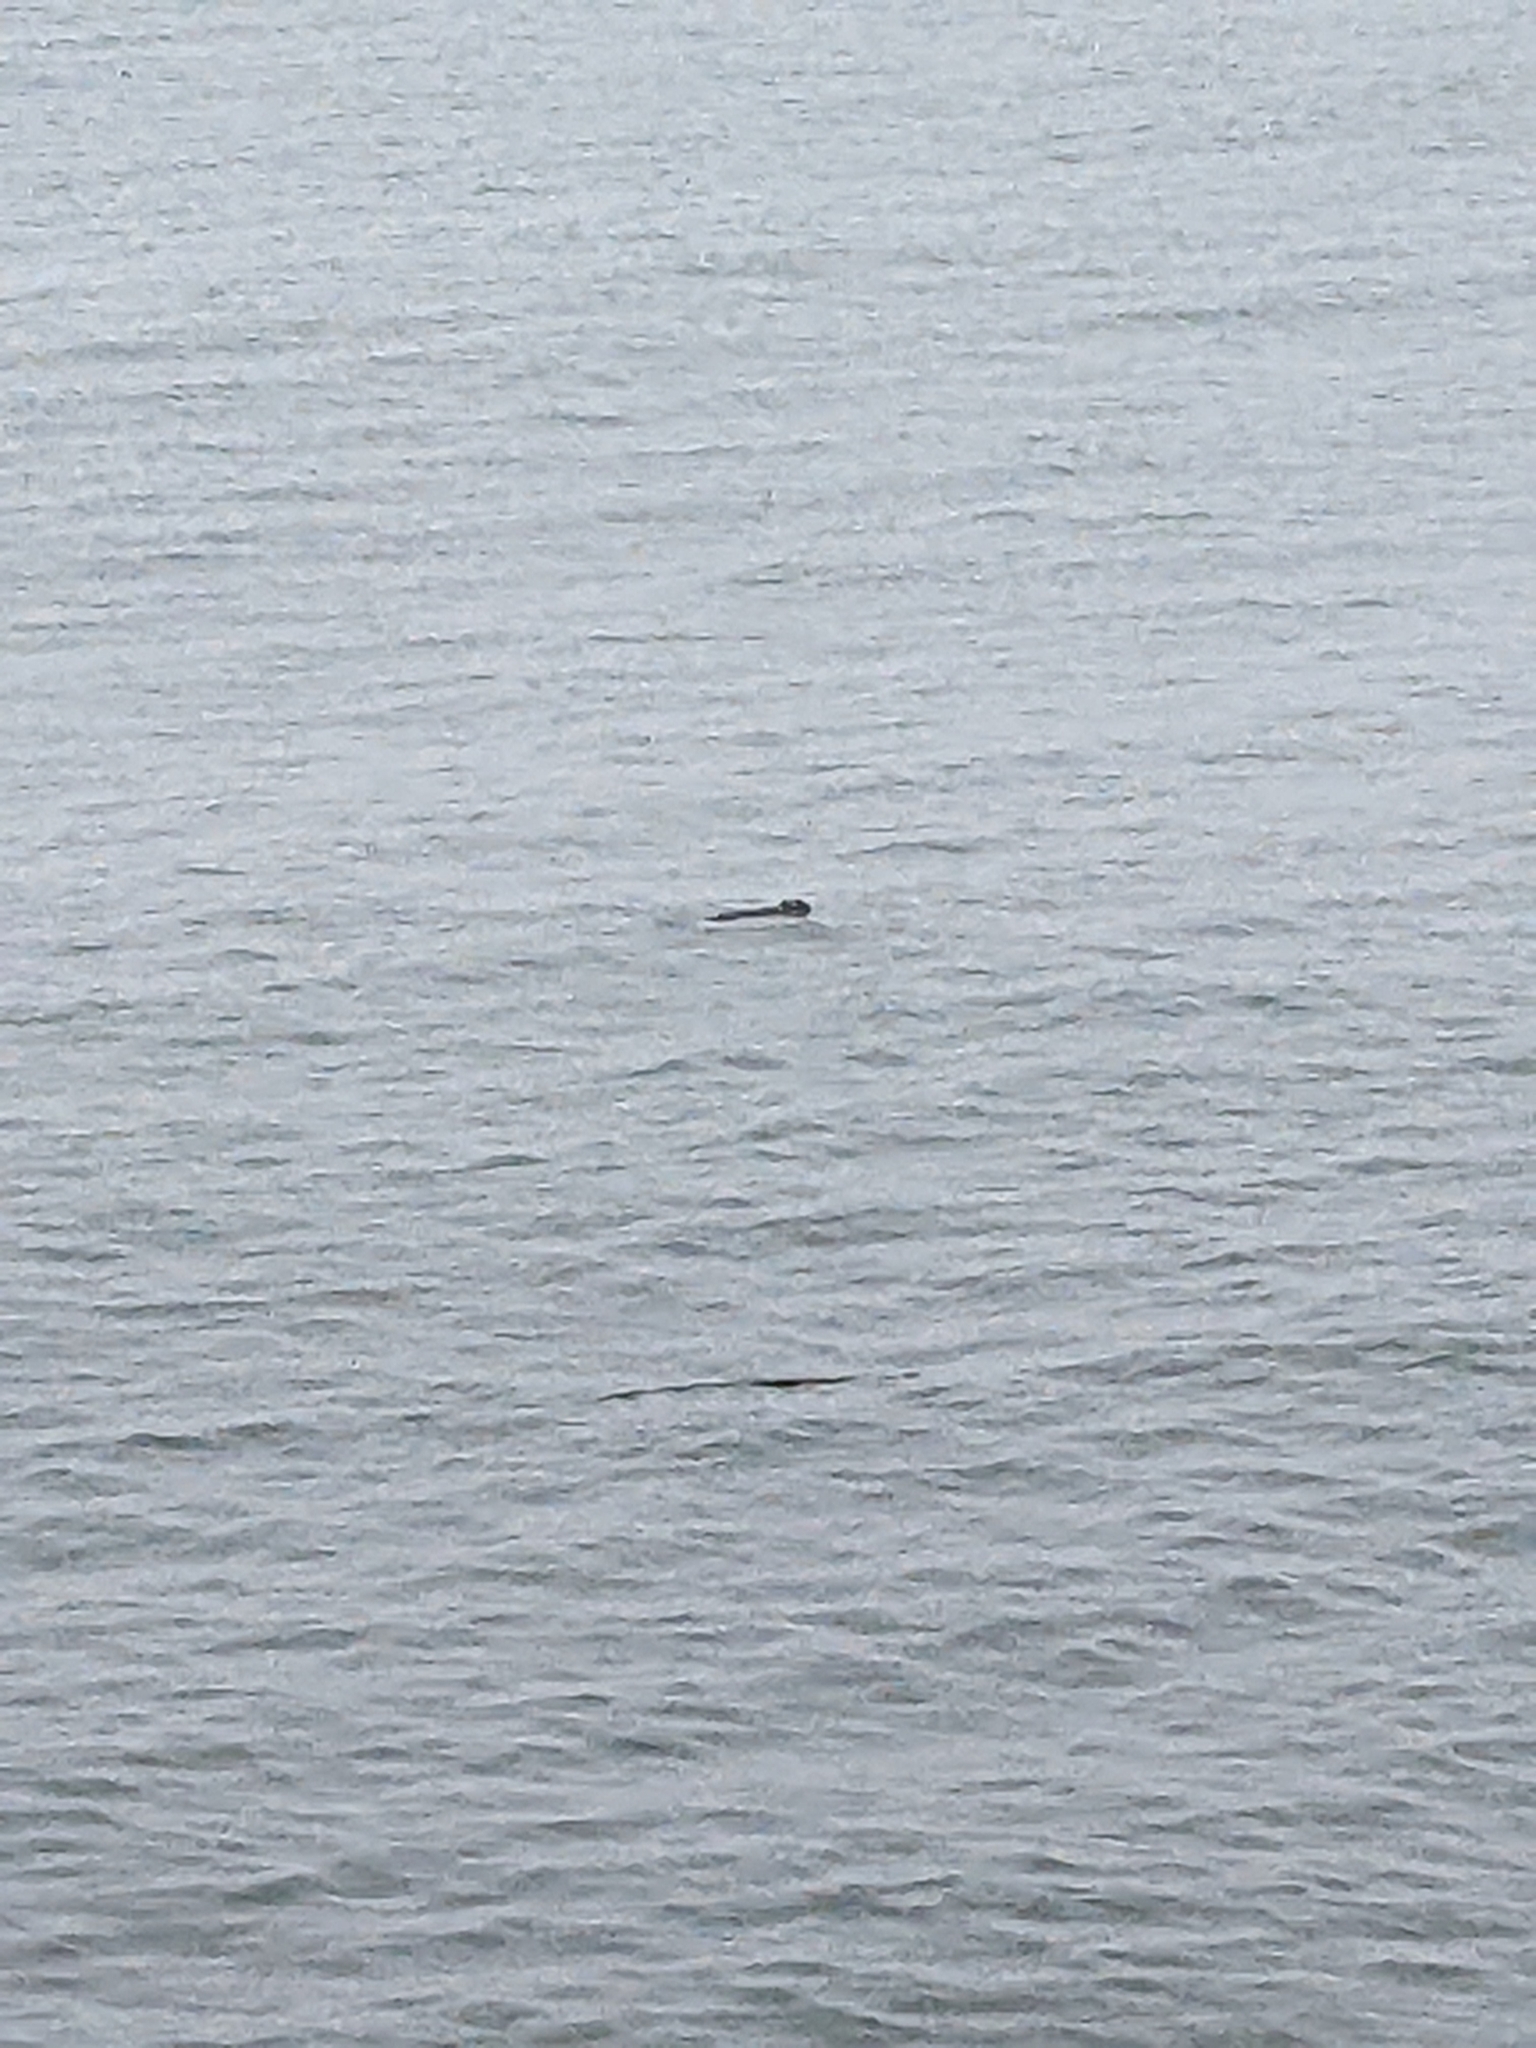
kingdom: Animalia
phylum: Chordata
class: Mammalia
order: Carnivora
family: Mustelidae
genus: Enhydra
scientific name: Enhydra lutris
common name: Sea otter
